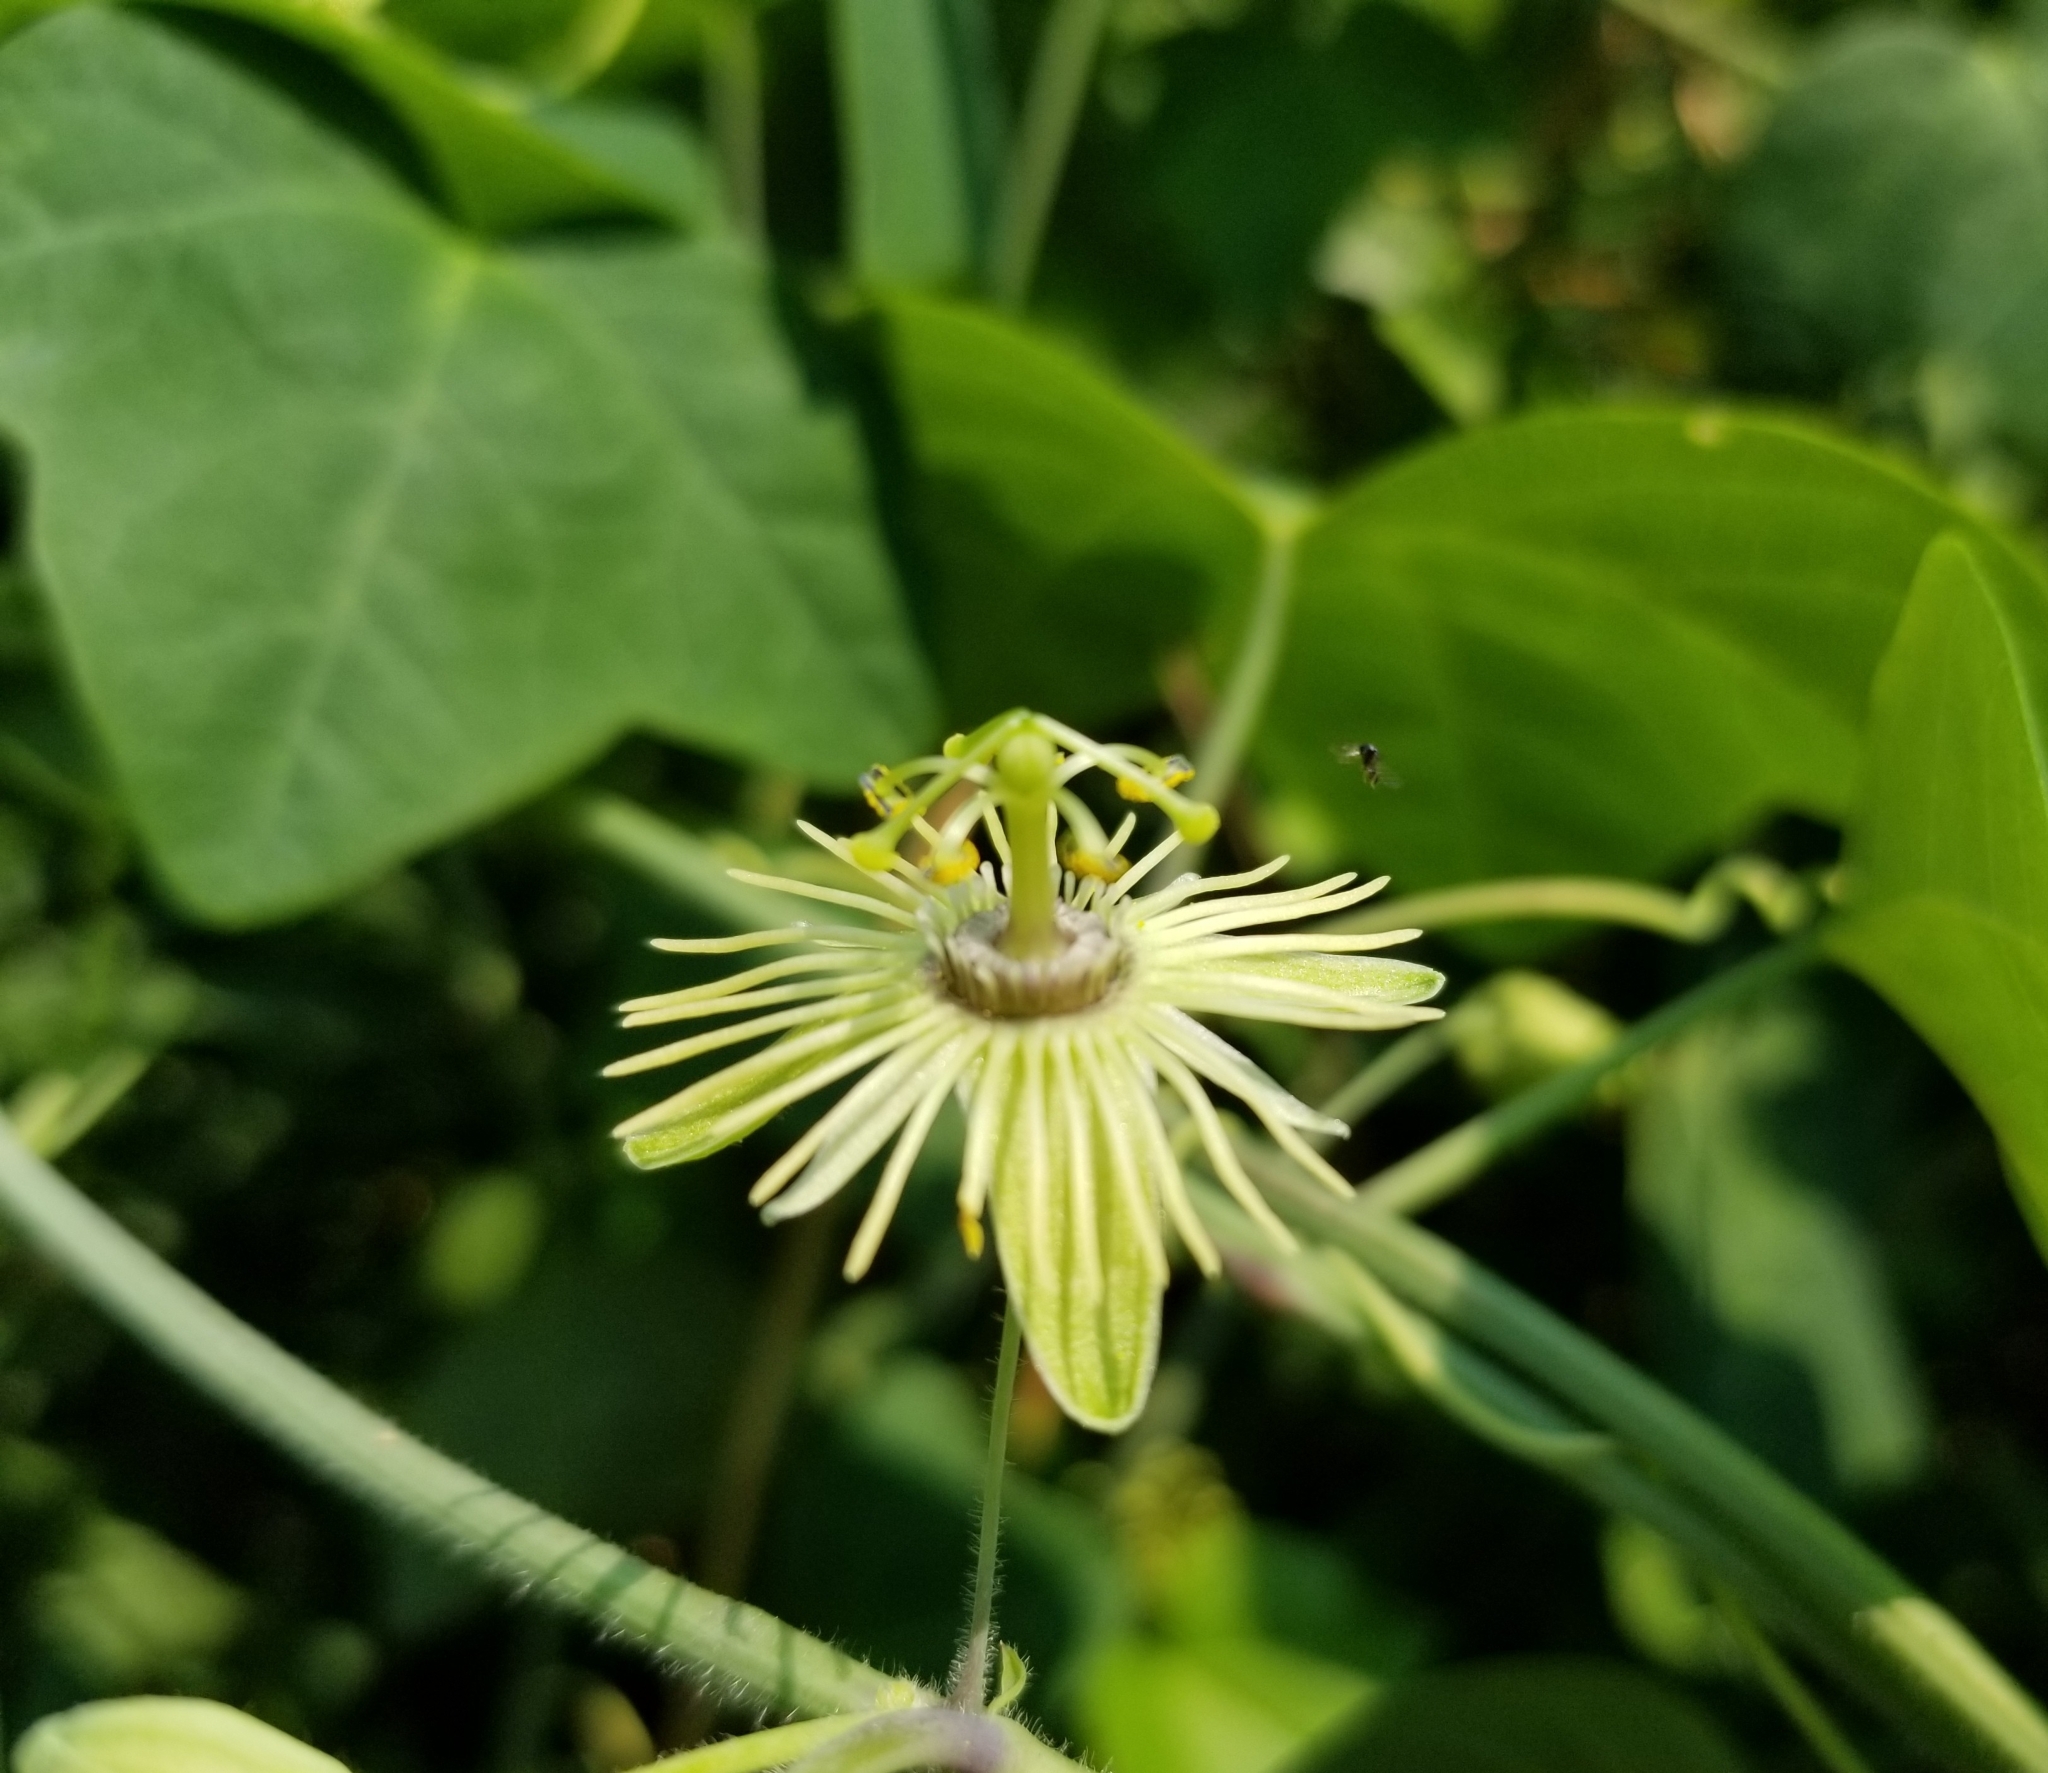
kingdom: Plantae
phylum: Tracheophyta
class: Magnoliopsida
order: Malpighiales
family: Passifloraceae
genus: Passiflora
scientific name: Passiflora lutea
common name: Yellow passionflower
